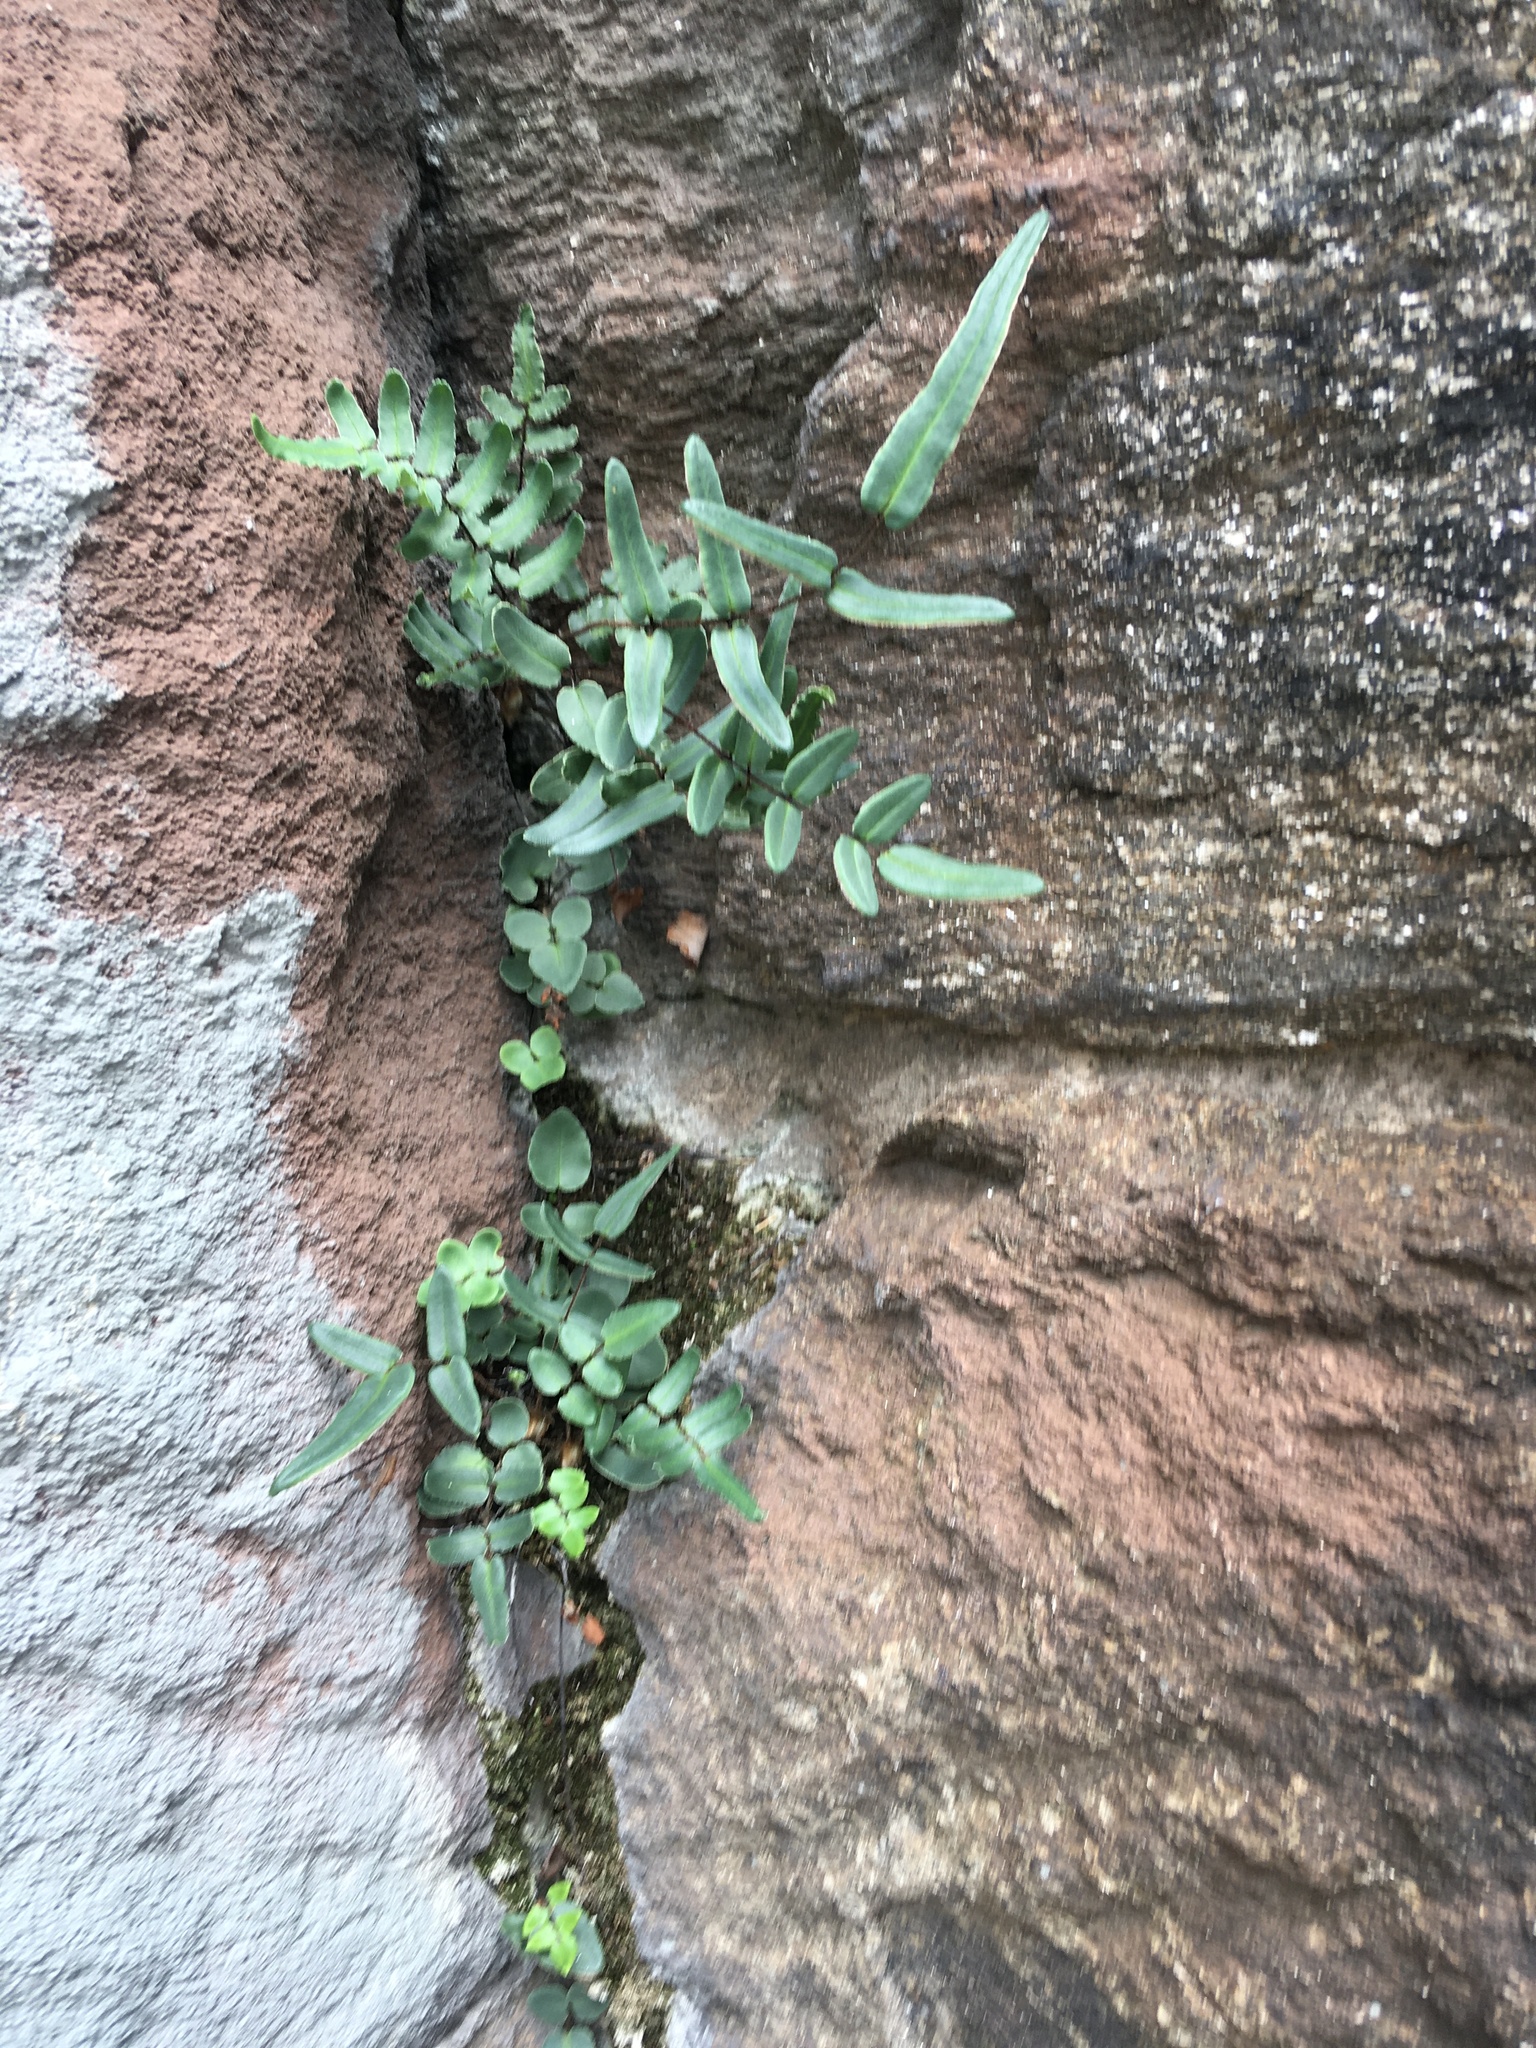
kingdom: Plantae
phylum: Tracheophyta
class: Polypodiopsida
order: Polypodiales
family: Pteridaceae
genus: Pellaea
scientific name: Pellaea atropurpurea
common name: Hairy cliffbrake
